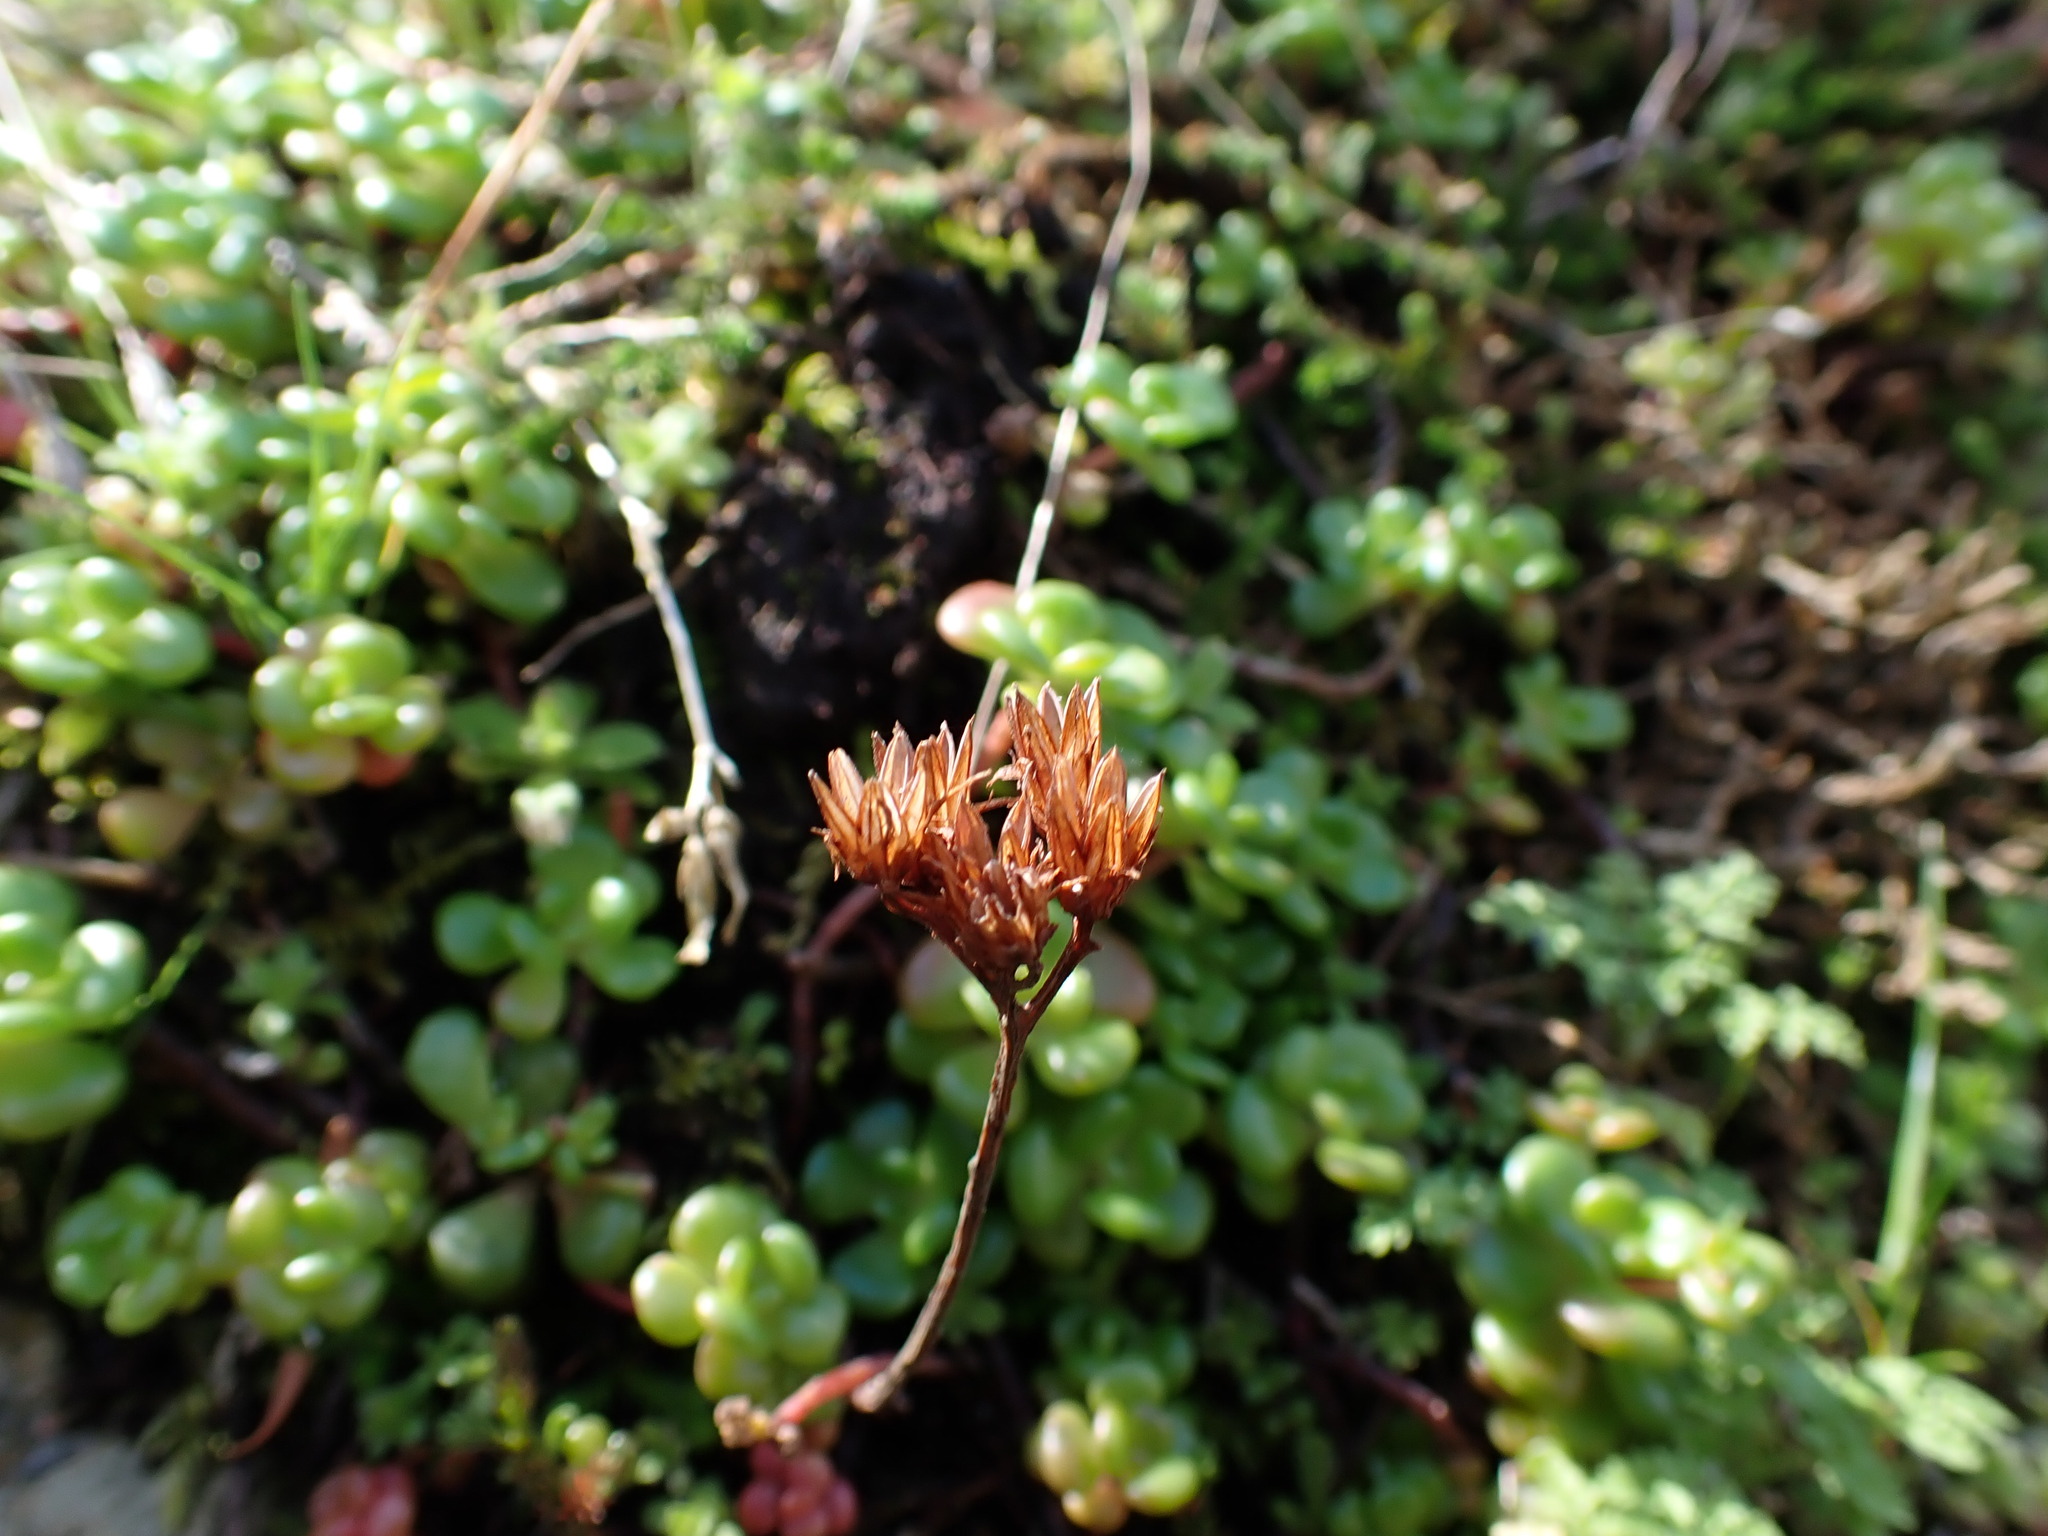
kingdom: Plantae
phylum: Tracheophyta
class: Magnoliopsida
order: Saxifragales
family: Crassulaceae
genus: Sedum
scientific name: Sedum oreganum
